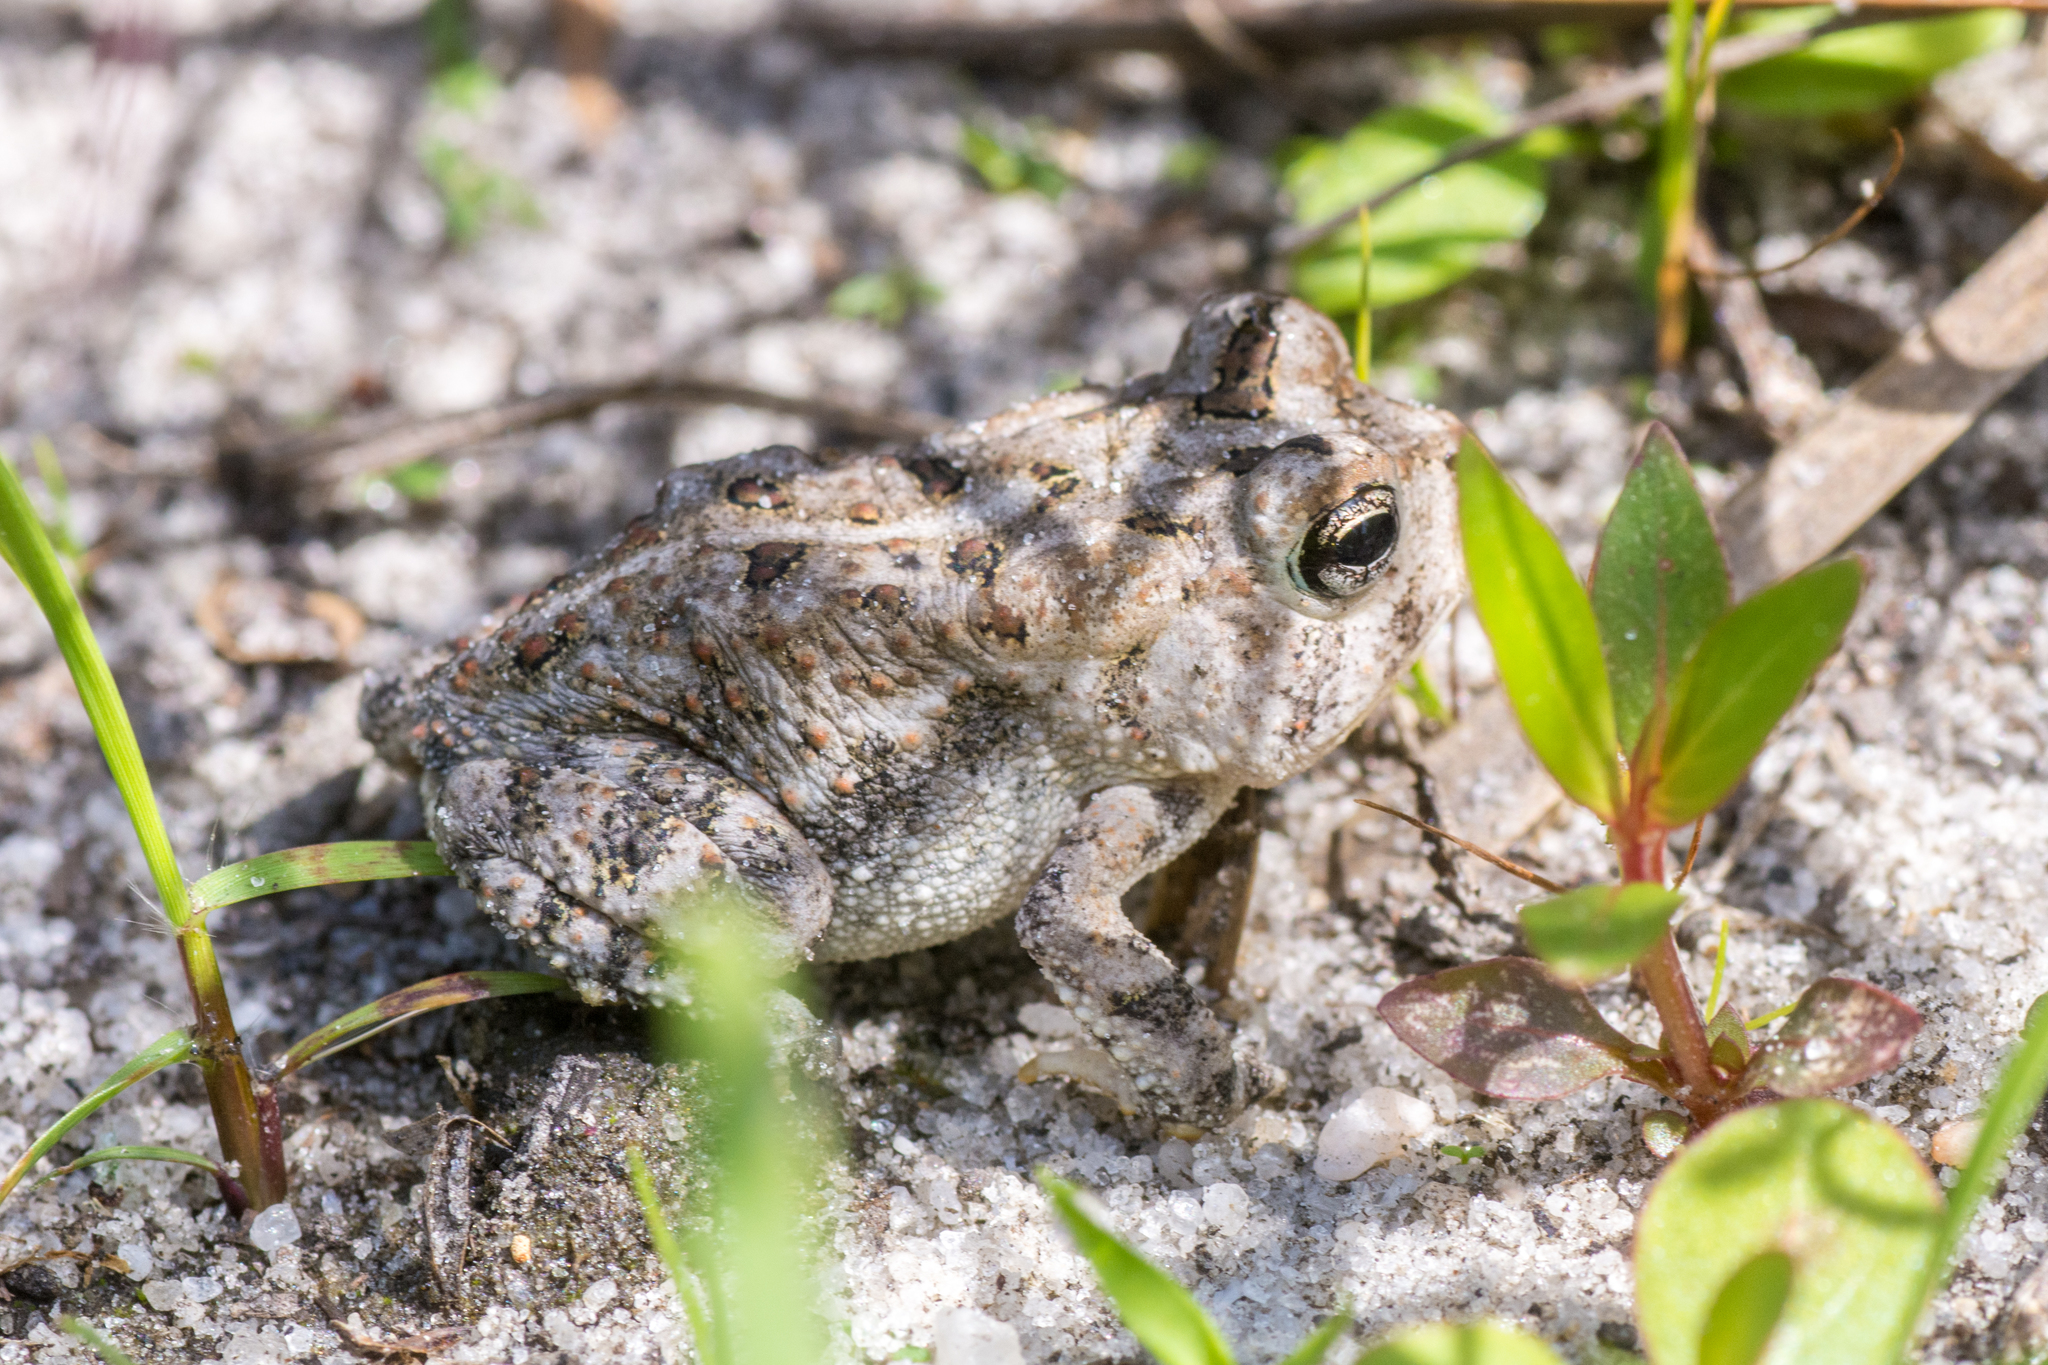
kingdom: Animalia
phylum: Chordata
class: Amphibia
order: Anura
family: Bufonidae
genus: Anaxyrus
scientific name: Anaxyrus terrestris
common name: Southern toad
